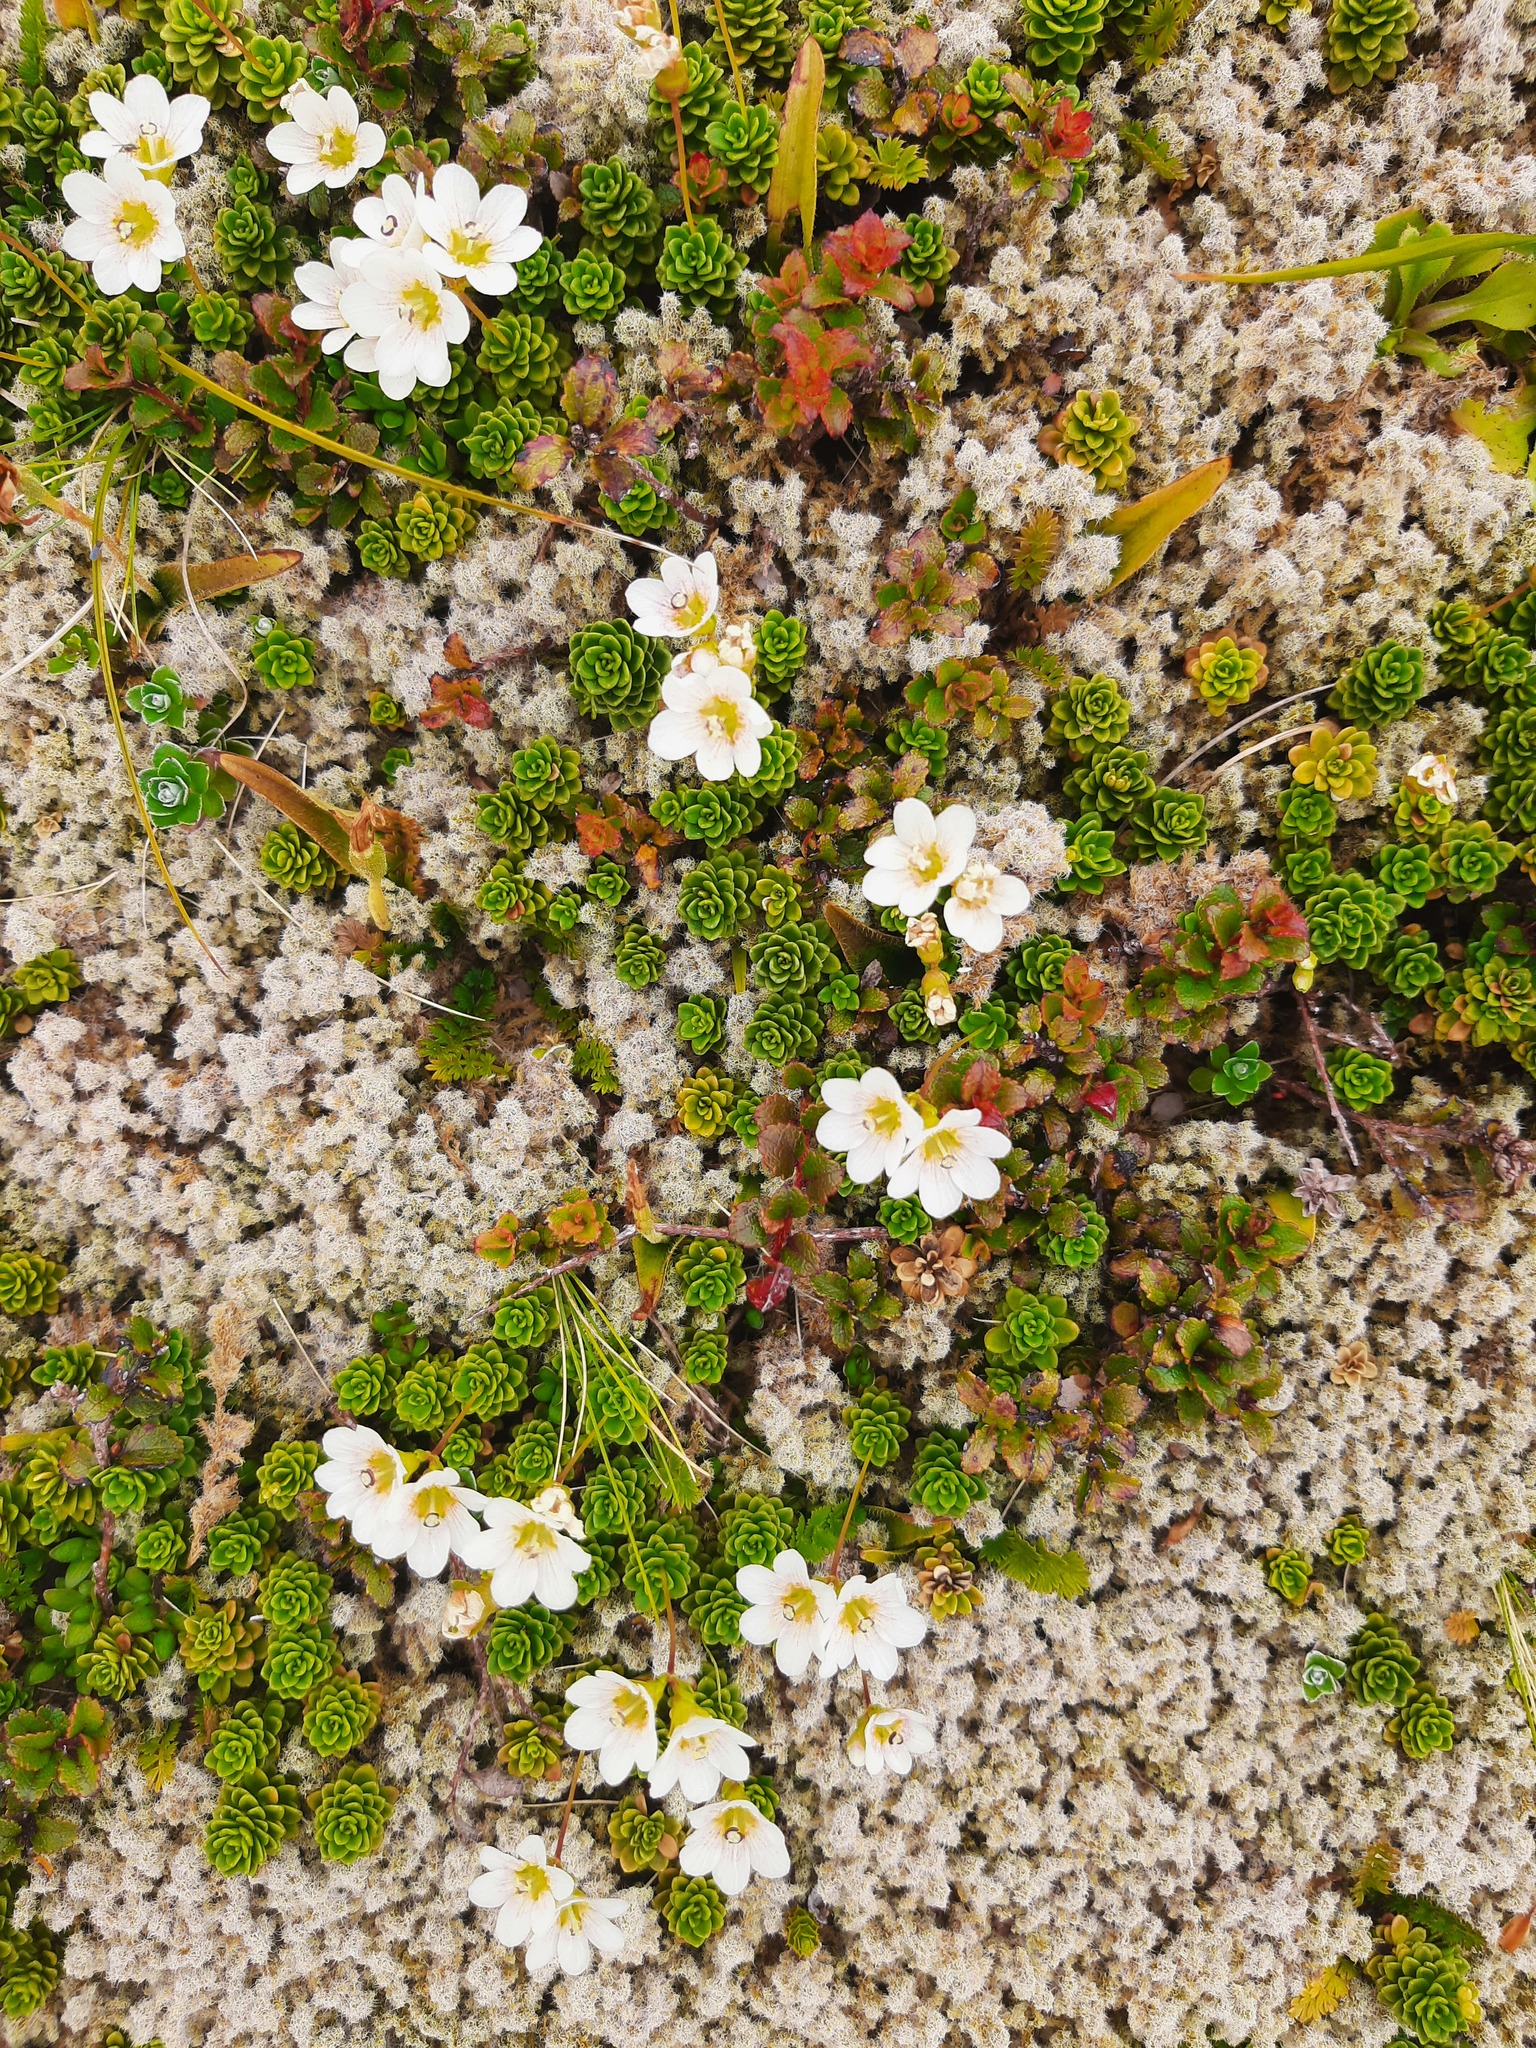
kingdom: Plantae
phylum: Tracheophyta
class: Magnoliopsida
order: Asterales
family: Stylidiaceae
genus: Forstera
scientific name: Forstera tenella
